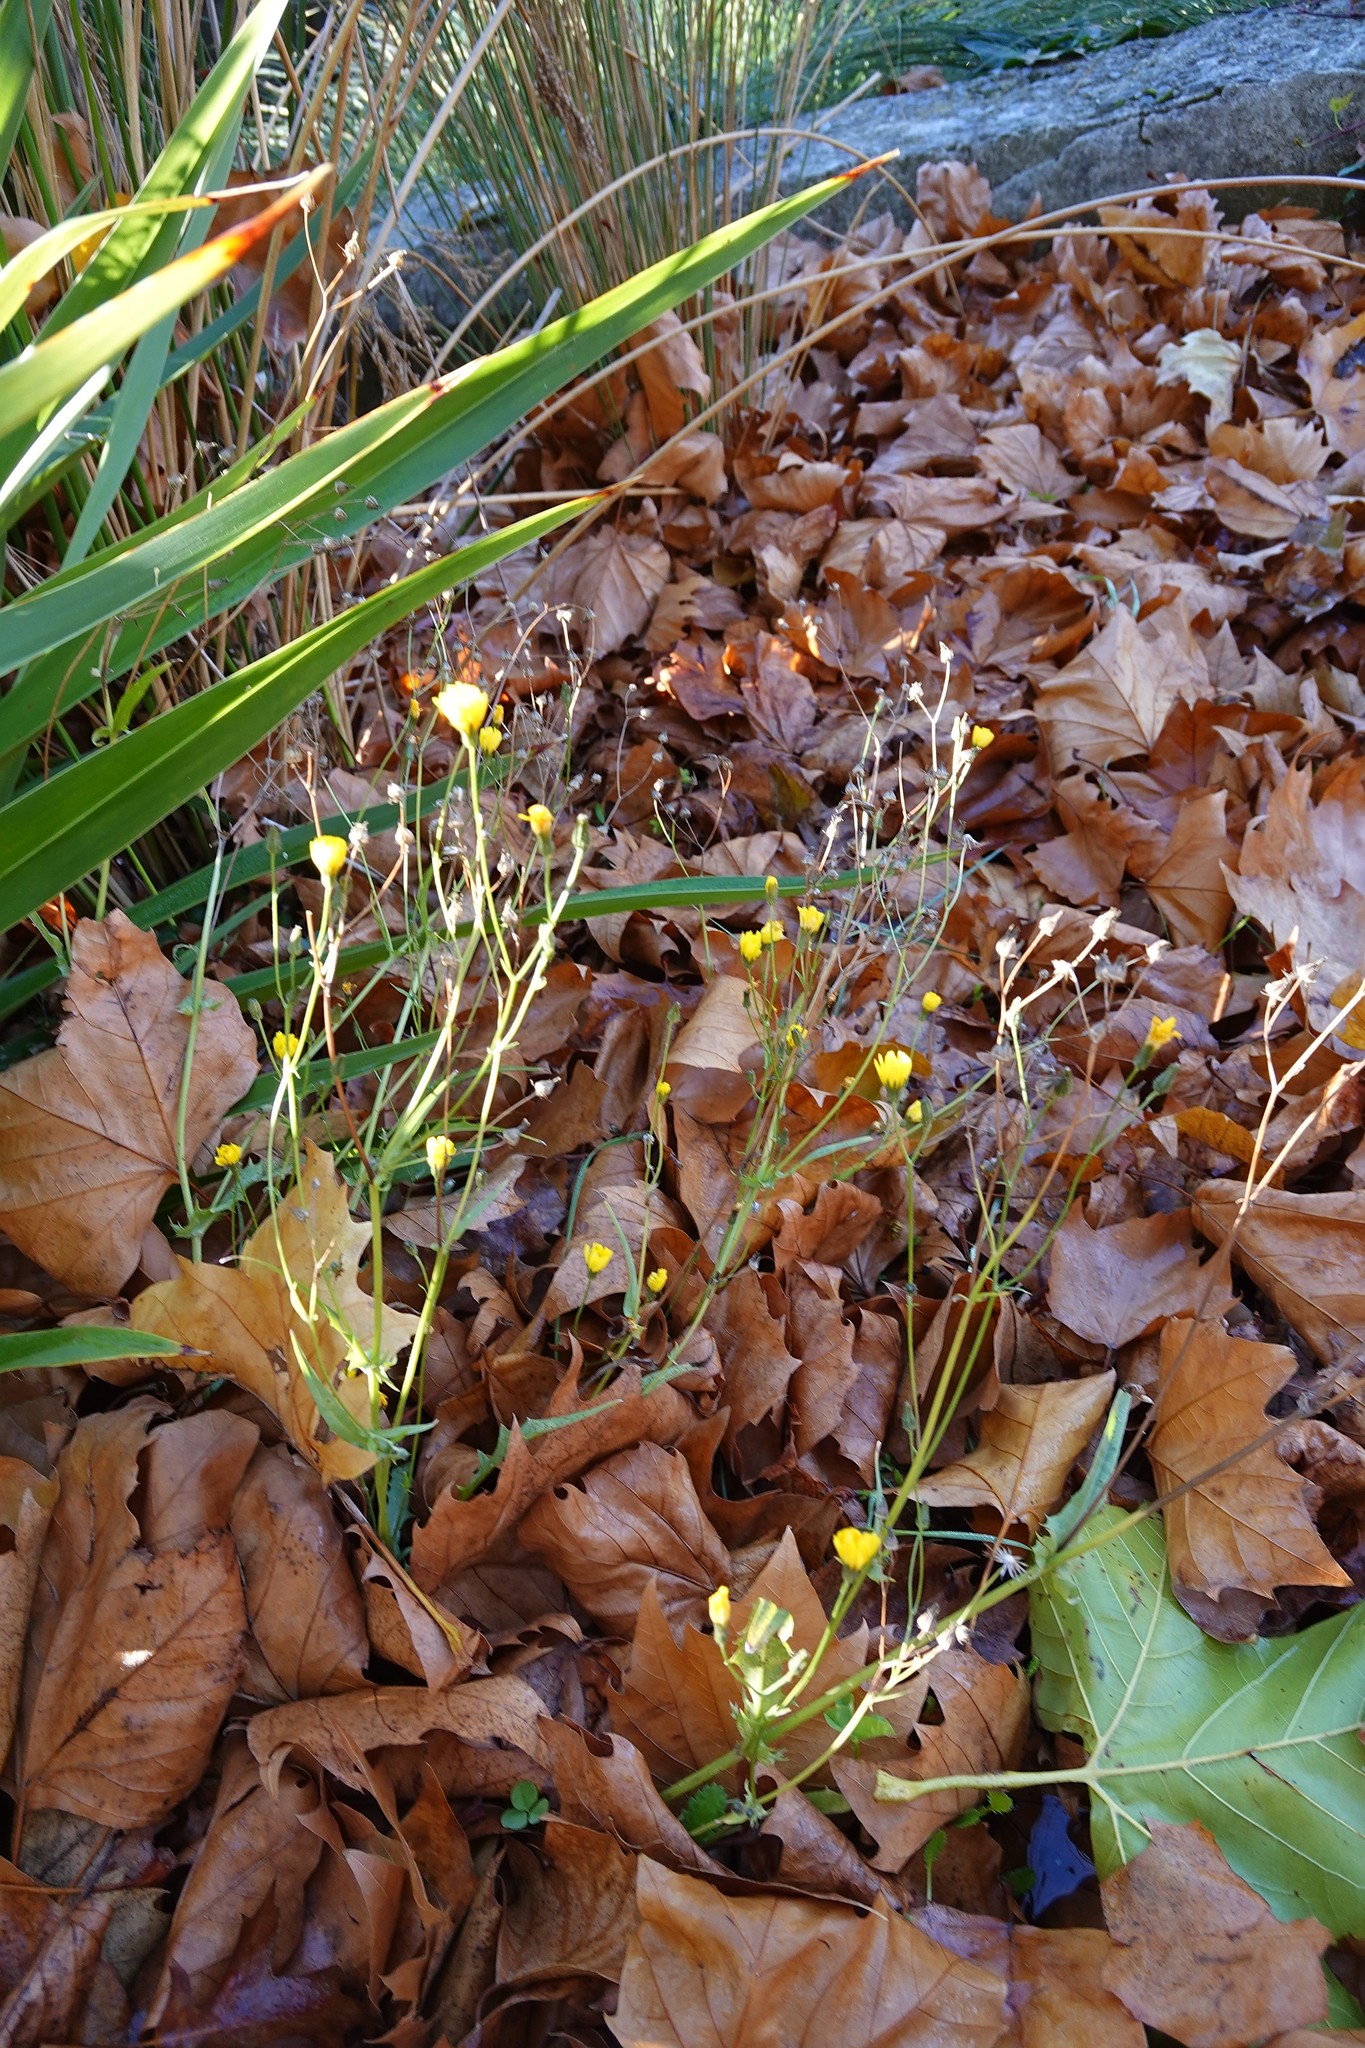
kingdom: Plantae
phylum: Tracheophyta
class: Magnoliopsida
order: Asterales
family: Asteraceae
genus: Crepis
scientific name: Crepis capillaris
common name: Smooth hawksbeard
